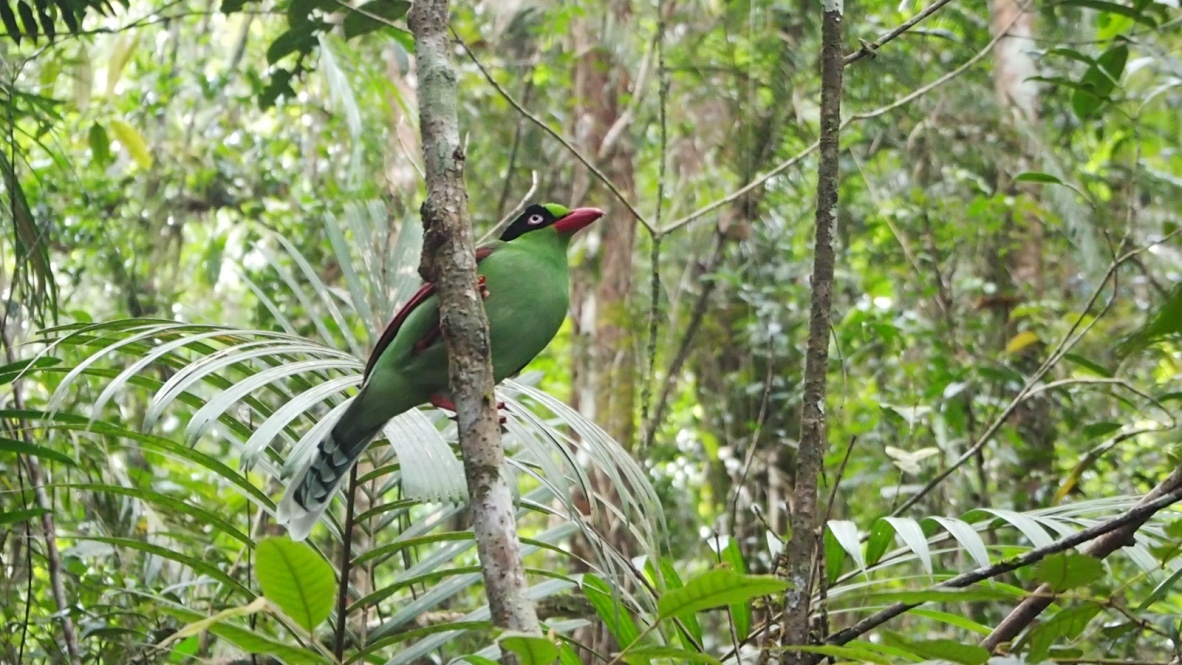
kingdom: Animalia
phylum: Chordata
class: Aves
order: Passeriformes
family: Corvidae
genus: Cissa
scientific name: Cissa jefferyi
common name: Bornean green magpie
